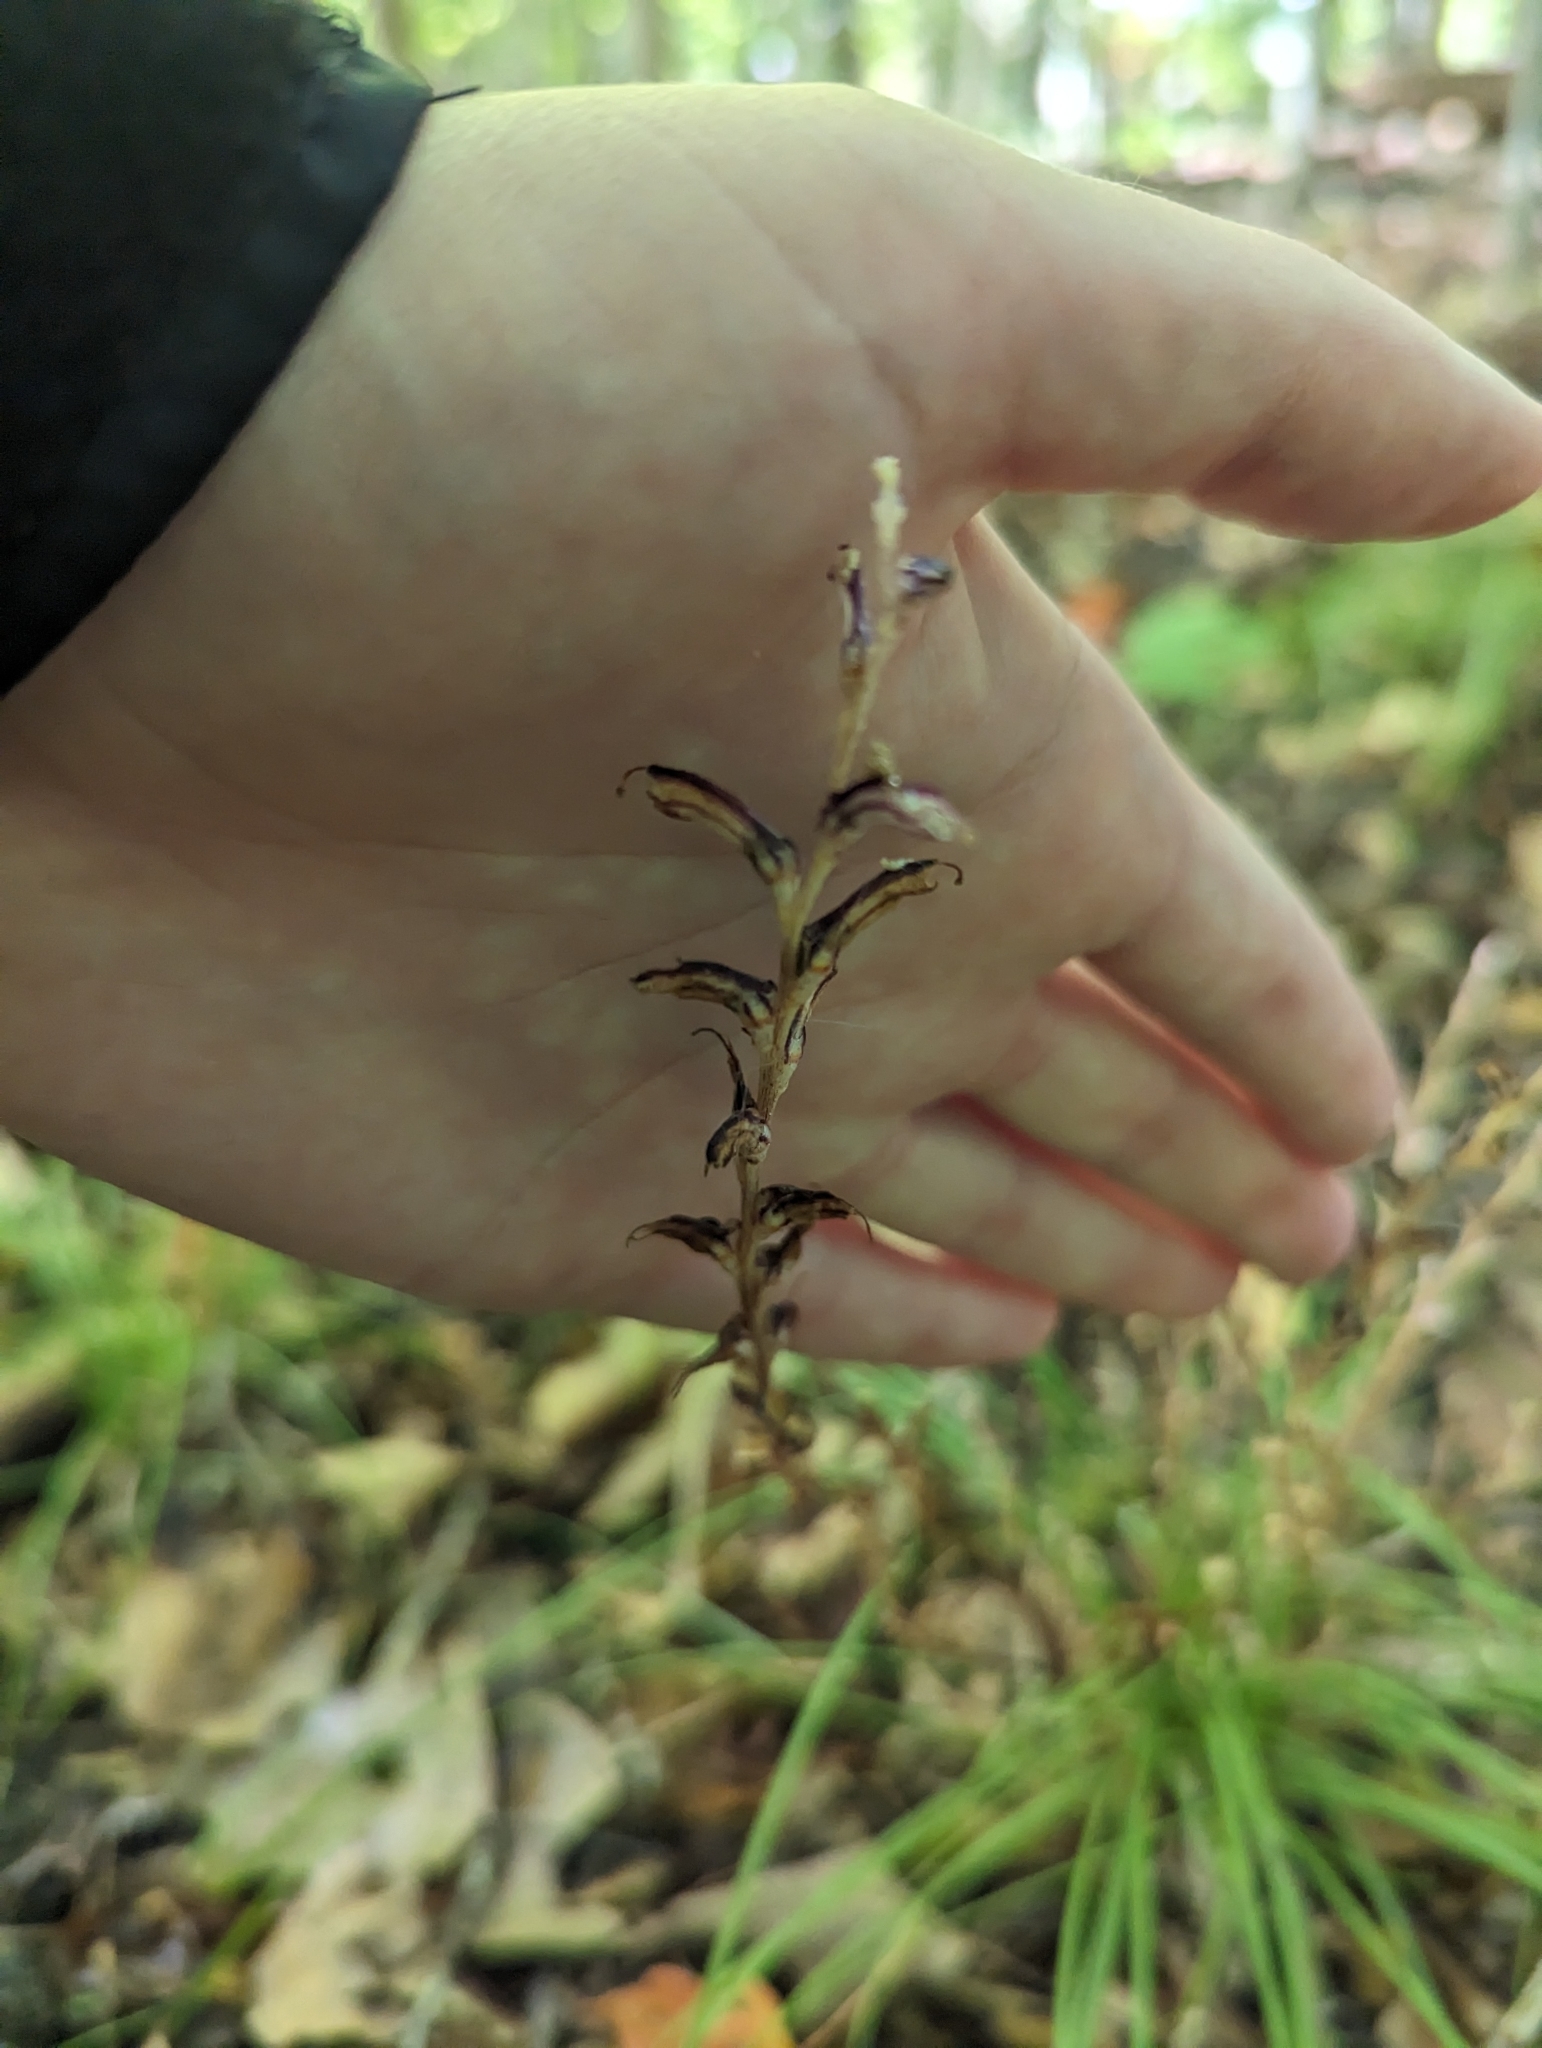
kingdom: Plantae
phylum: Tracheophyta
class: Magnoliopsida
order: Lamiales
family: Orobanchaceae
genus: Epifagus
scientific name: Epifagus virginiana
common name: Beechdrops
